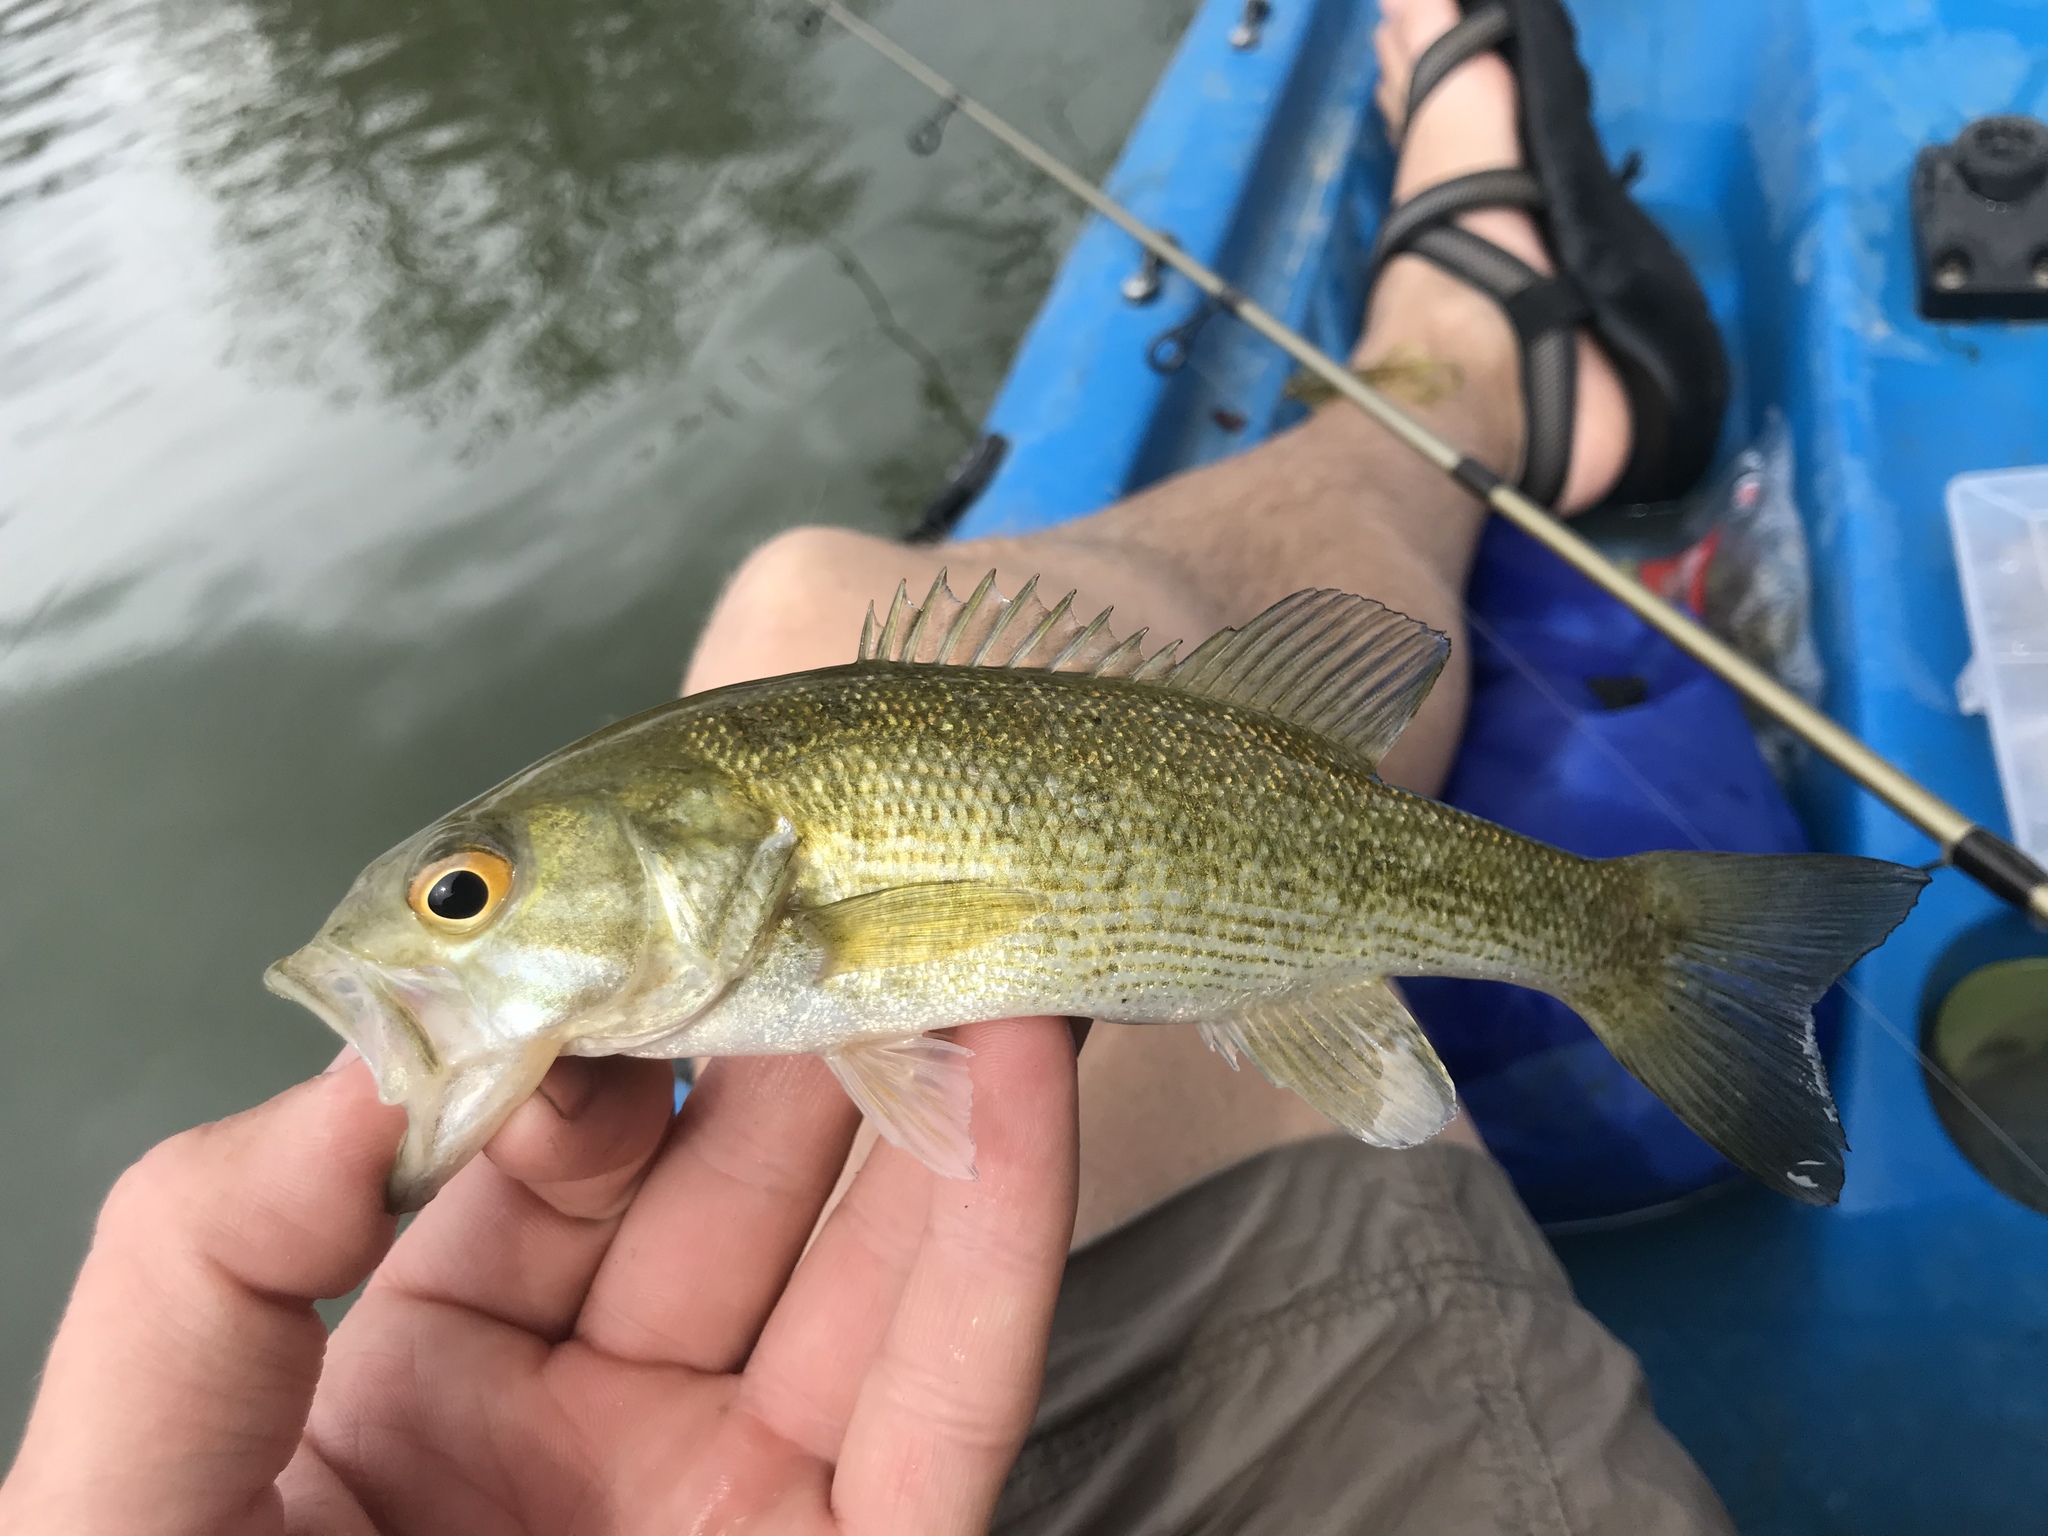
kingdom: Animalia
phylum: Chordata
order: Perciformes
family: Centrarchidae
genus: Micropterus
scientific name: Micropterus treculii
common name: Guadalupe bass
